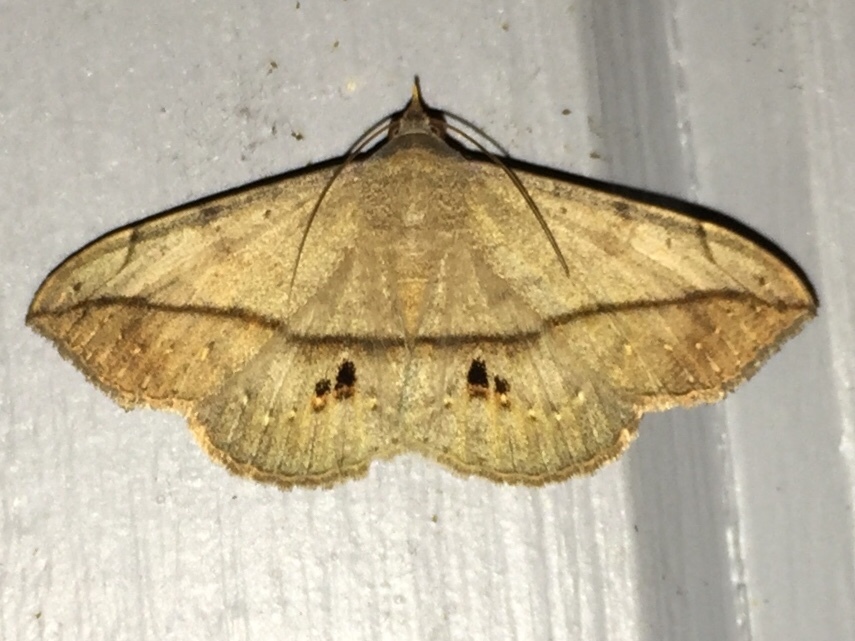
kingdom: Animalia
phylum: Arthropoda
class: Insecta
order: Lepidoptera
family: Erebidae
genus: Anticarsia
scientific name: Anticarsia gemmatalis
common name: Cutworm moth
